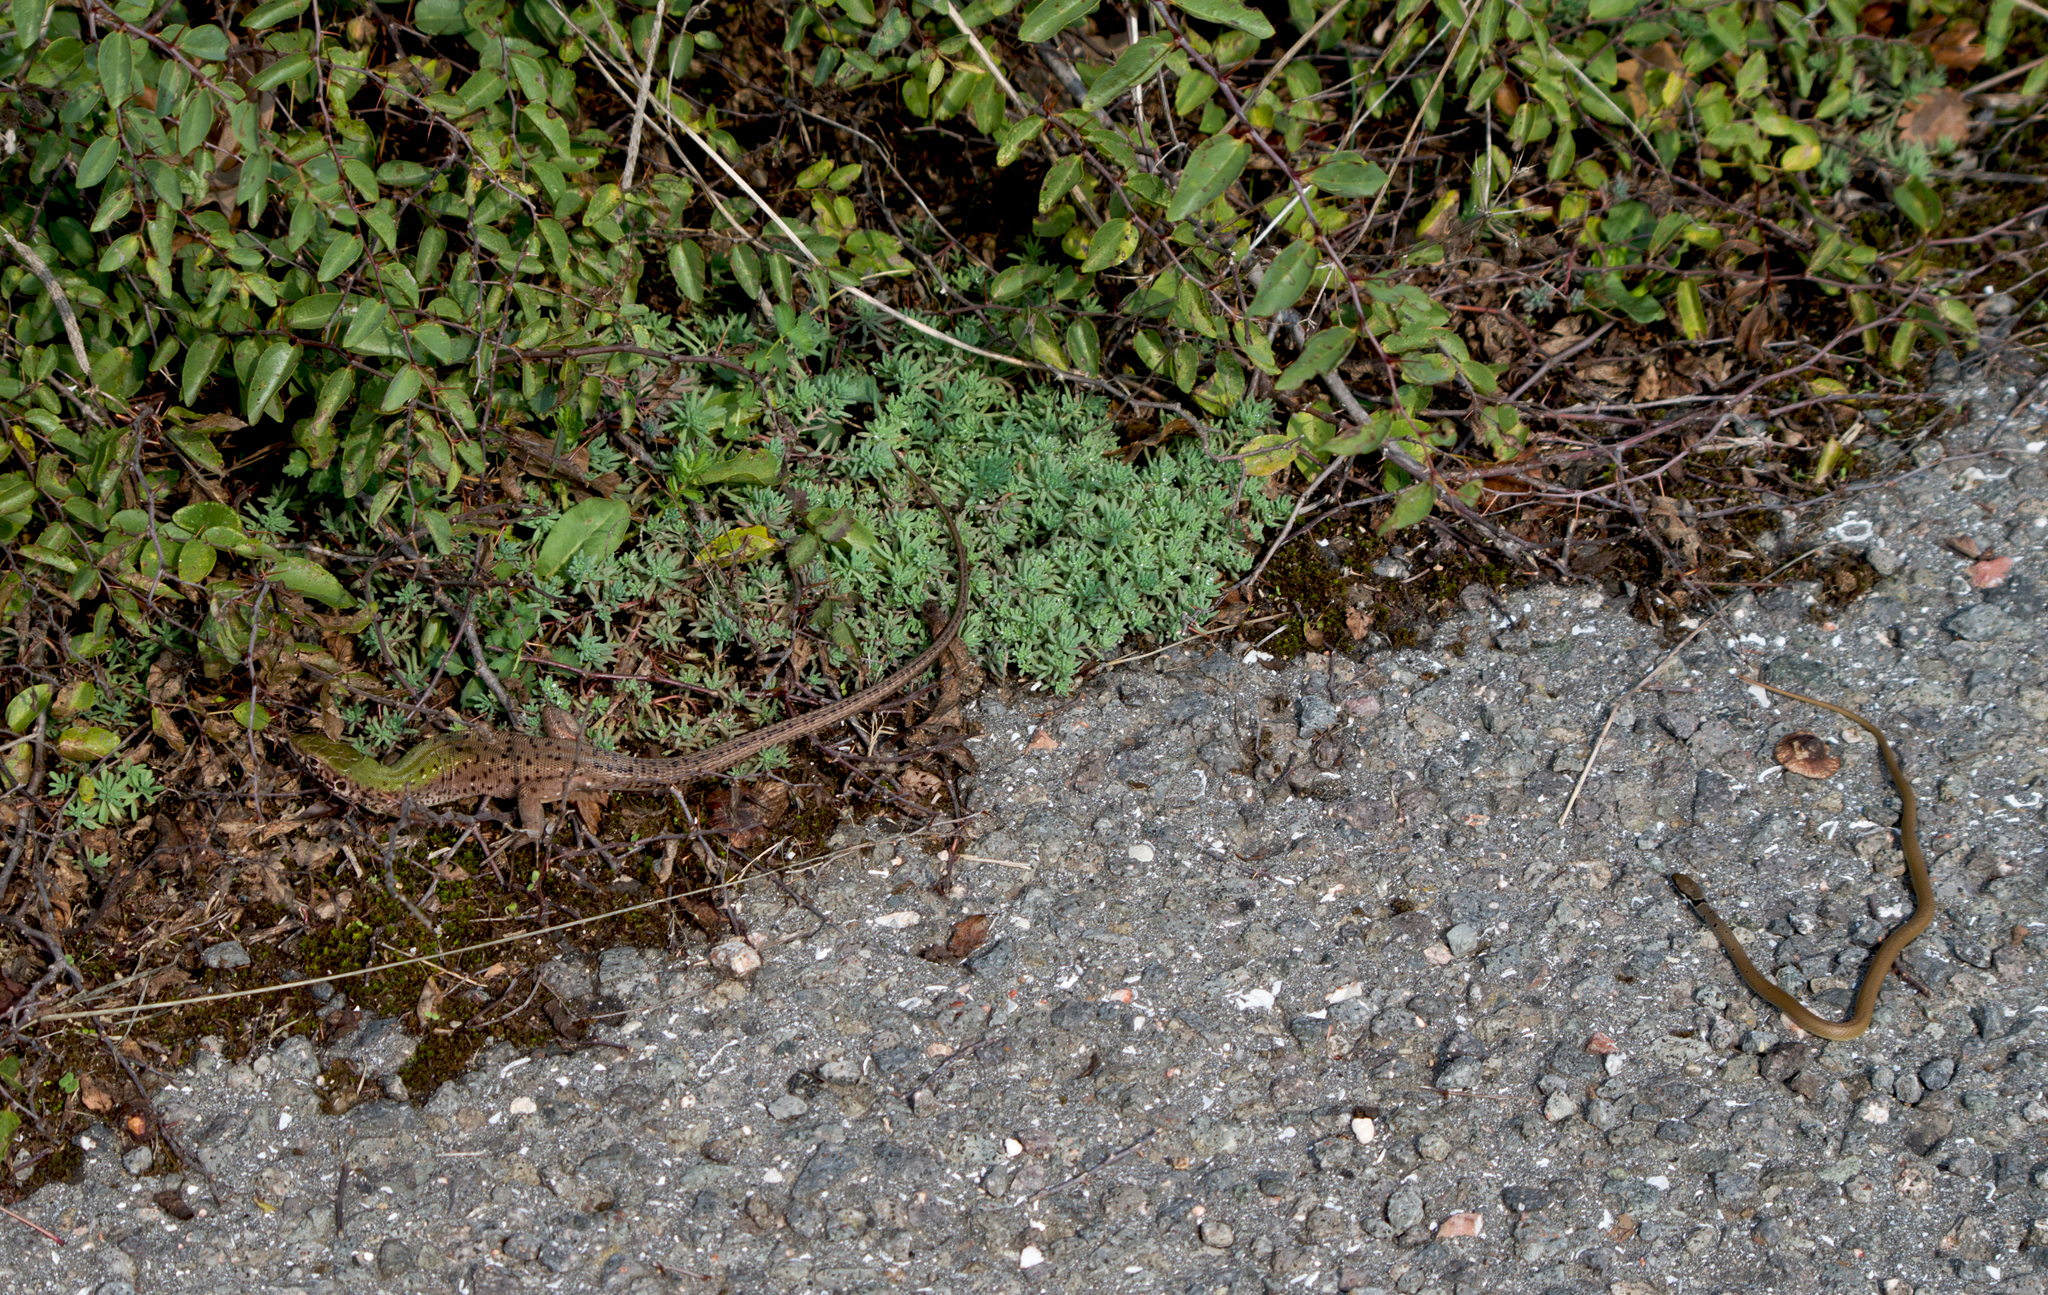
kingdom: Animalia
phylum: Chordata
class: Squamata
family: Colubridae
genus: Platyceps
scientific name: Platyceps collaris
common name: Collared dwarf racer
